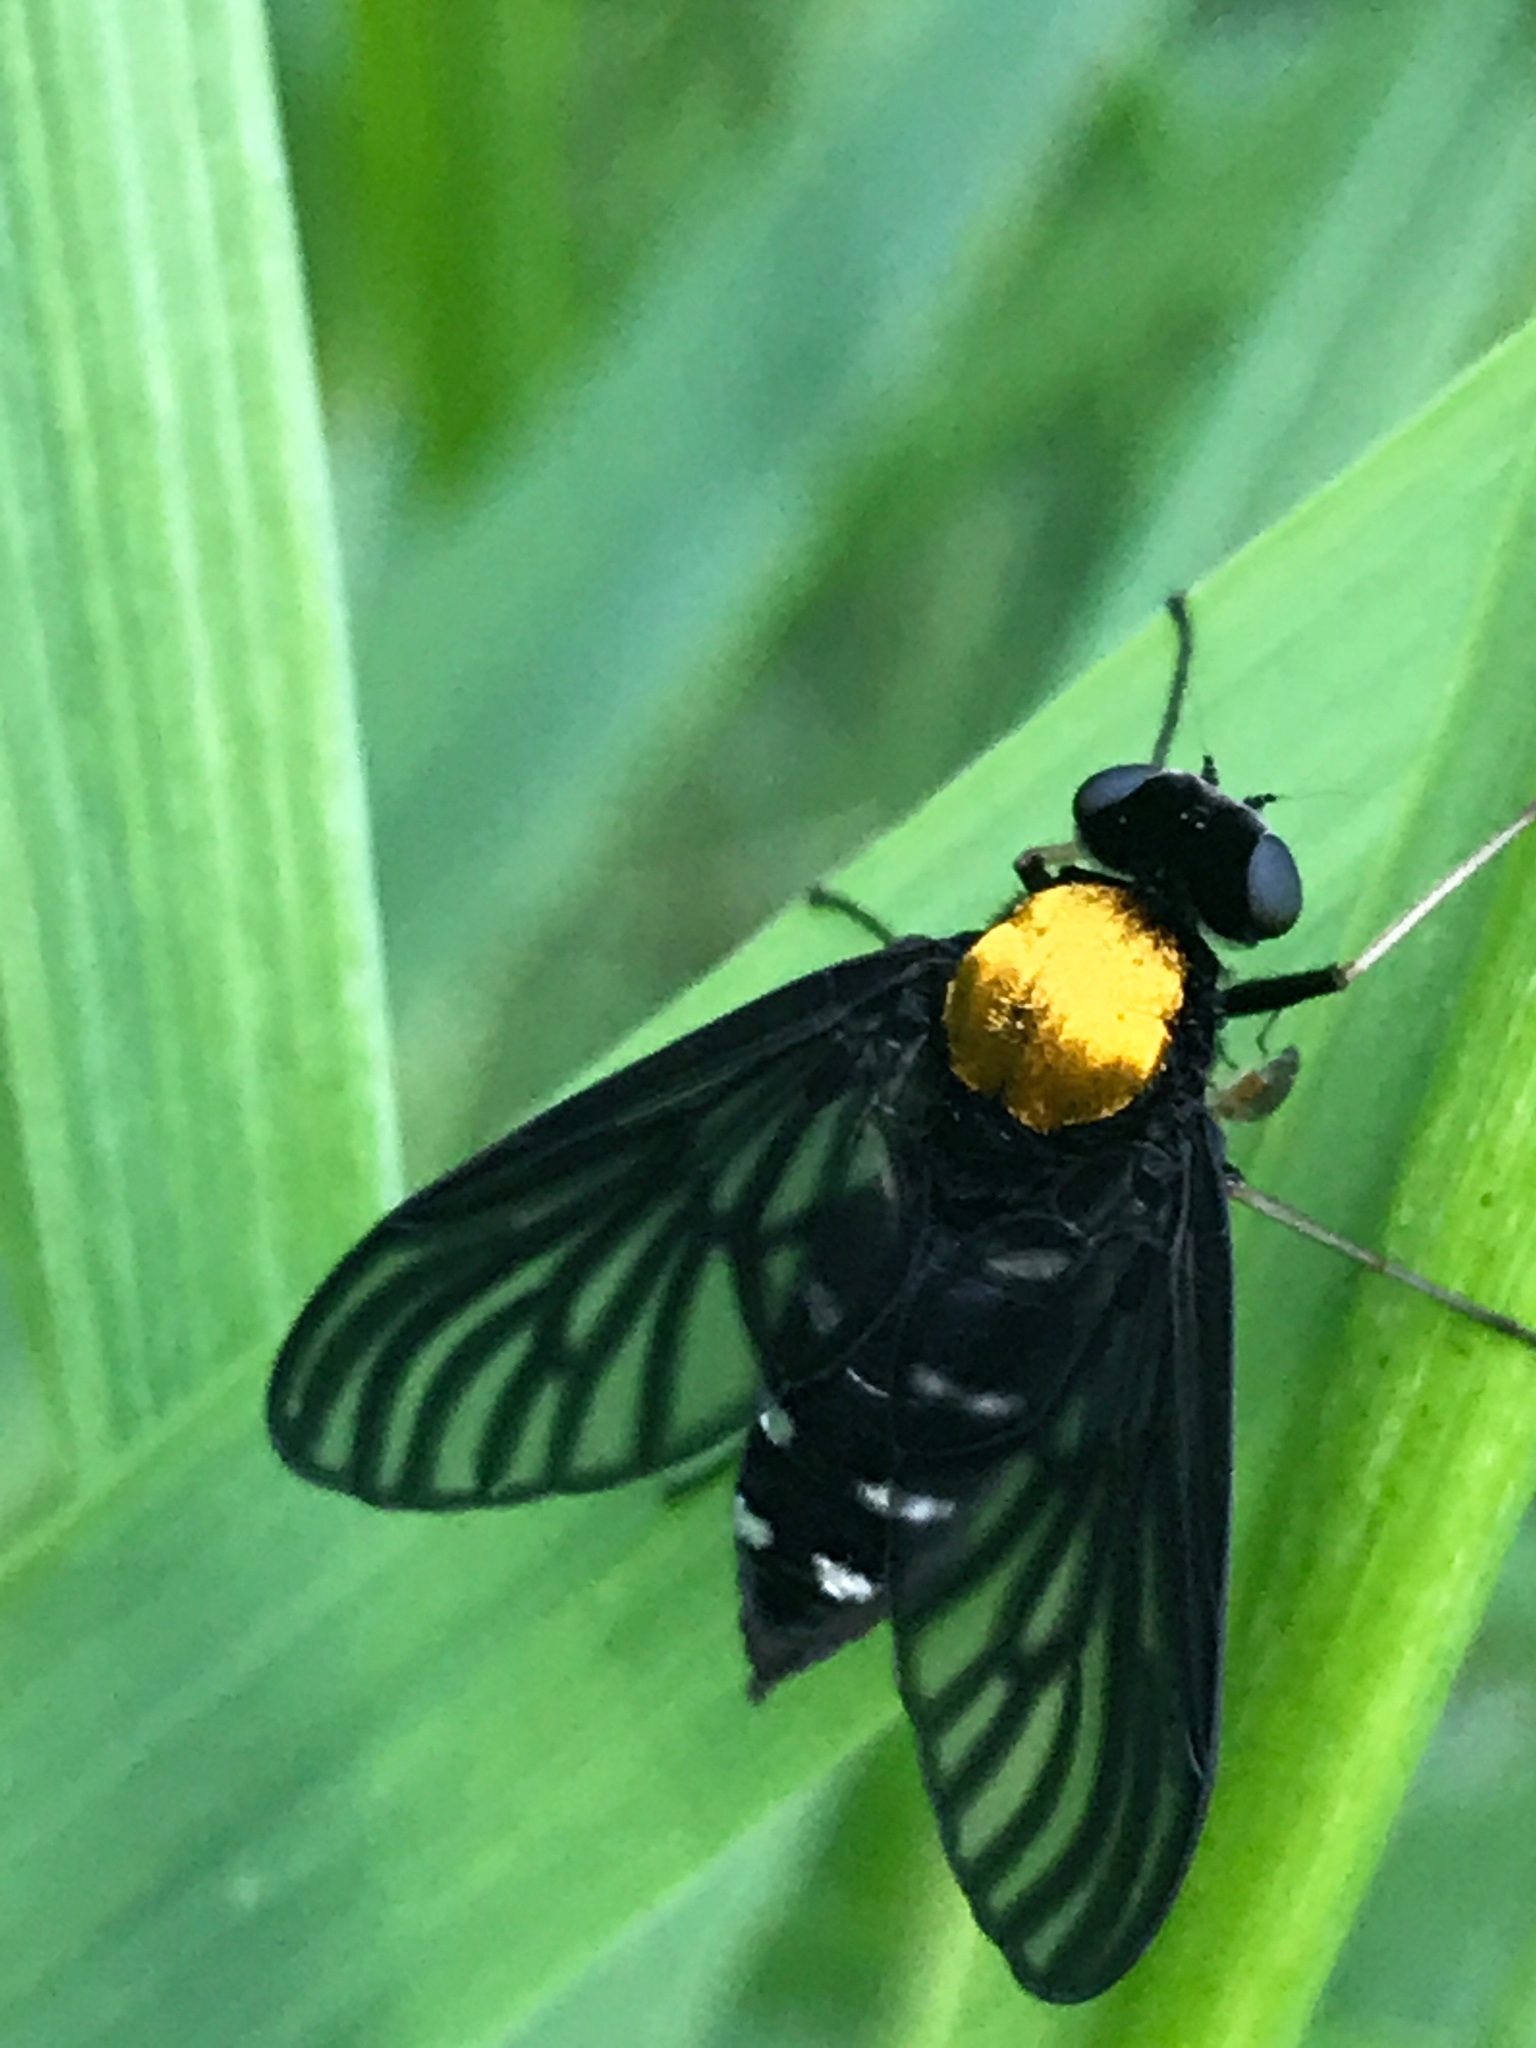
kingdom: Animalia
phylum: Arthropoda
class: Insecta
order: Diptera
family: Rhagionidae
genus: Chrysopilus
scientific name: Chrysopilus thoracicus
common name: Golden-backed snipe fly
